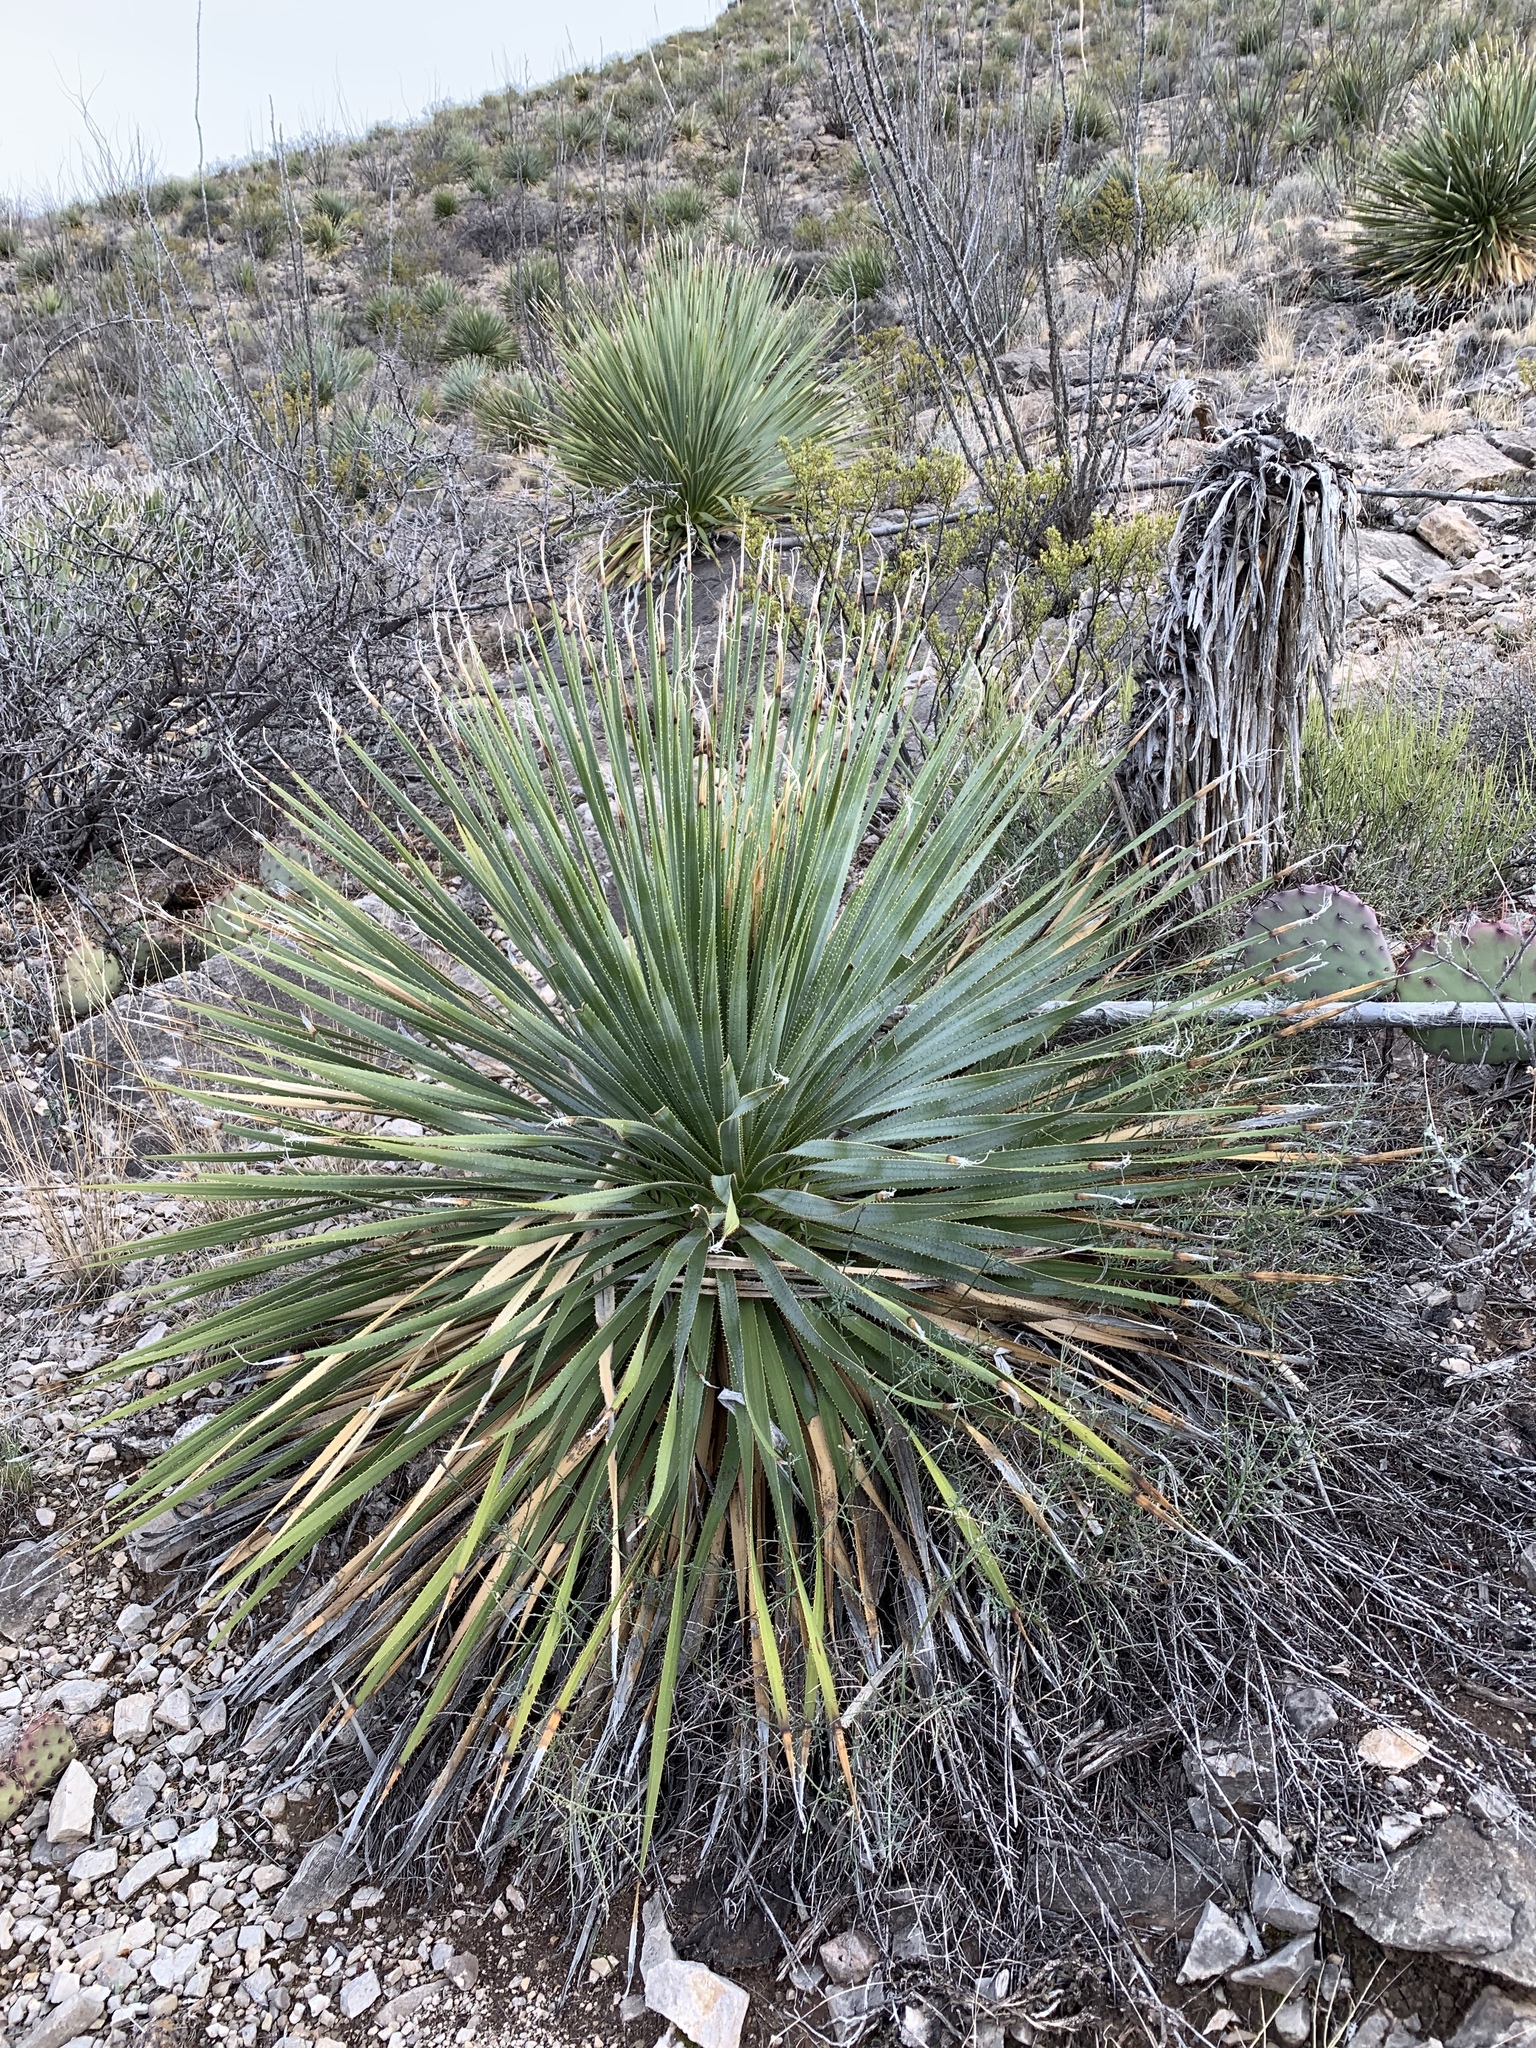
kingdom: Plantae
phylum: Tracheophyta
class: Liliopsida
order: Asparagales
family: Asparagaceae
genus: Dasylirion
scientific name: Dasylirion wheeleri
